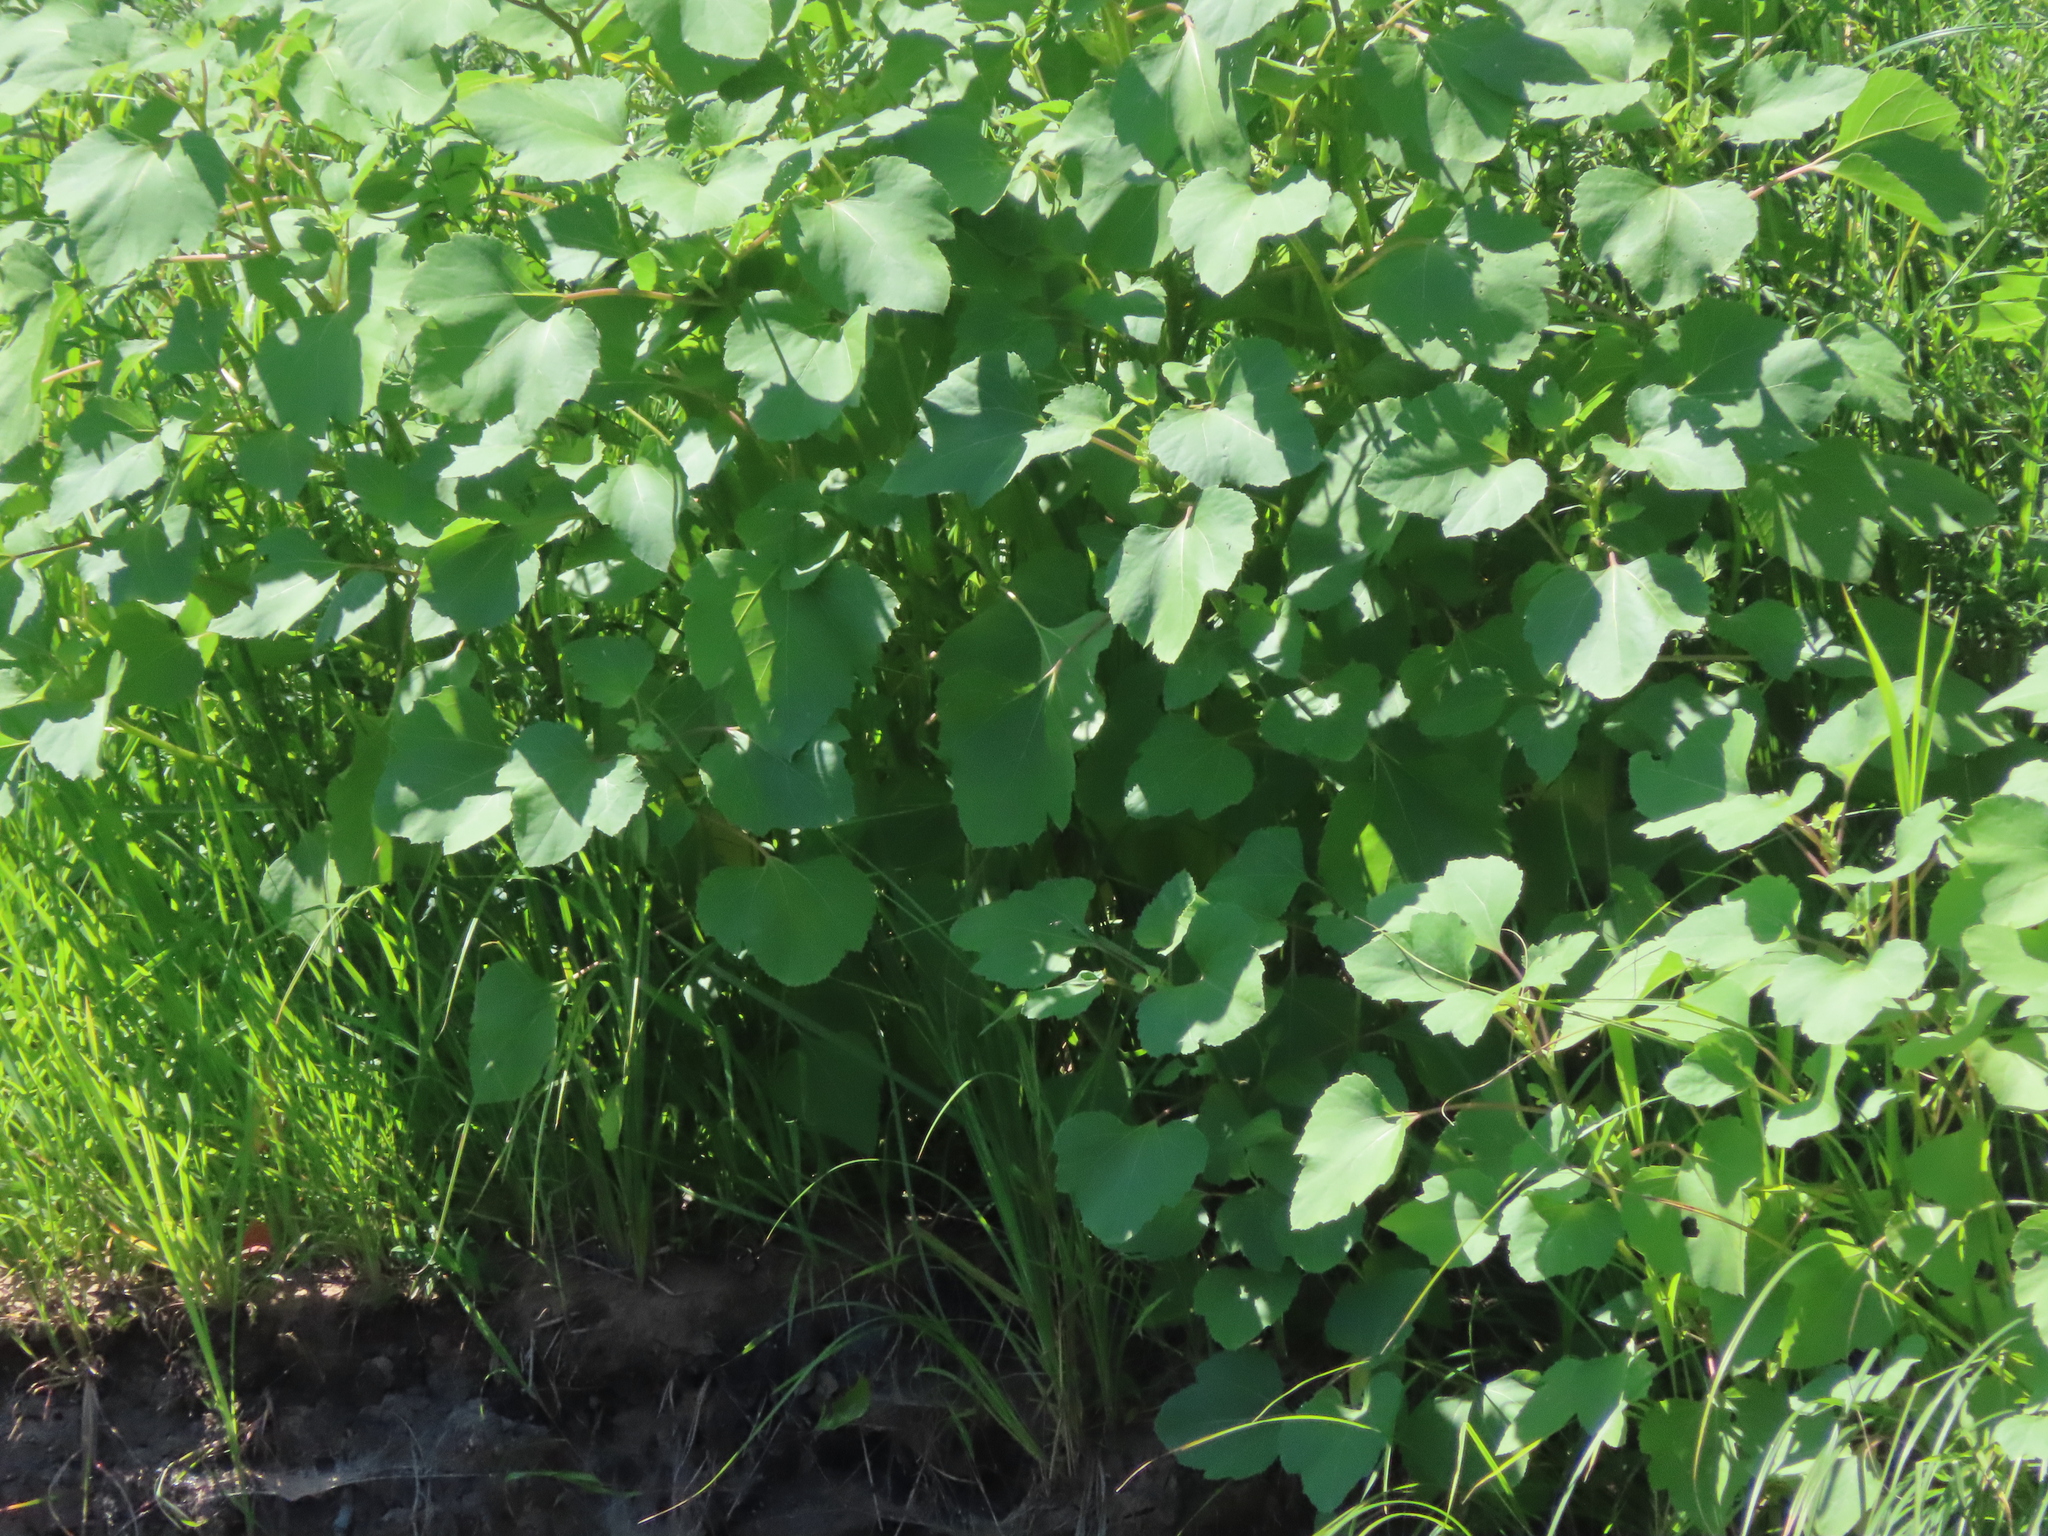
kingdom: Plantae
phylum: Tracheophyta
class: Magnoliopsida
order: Asterales
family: Asteraceae
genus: Xanthium
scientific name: Xanthium strumarium
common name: Rough cocklebur
